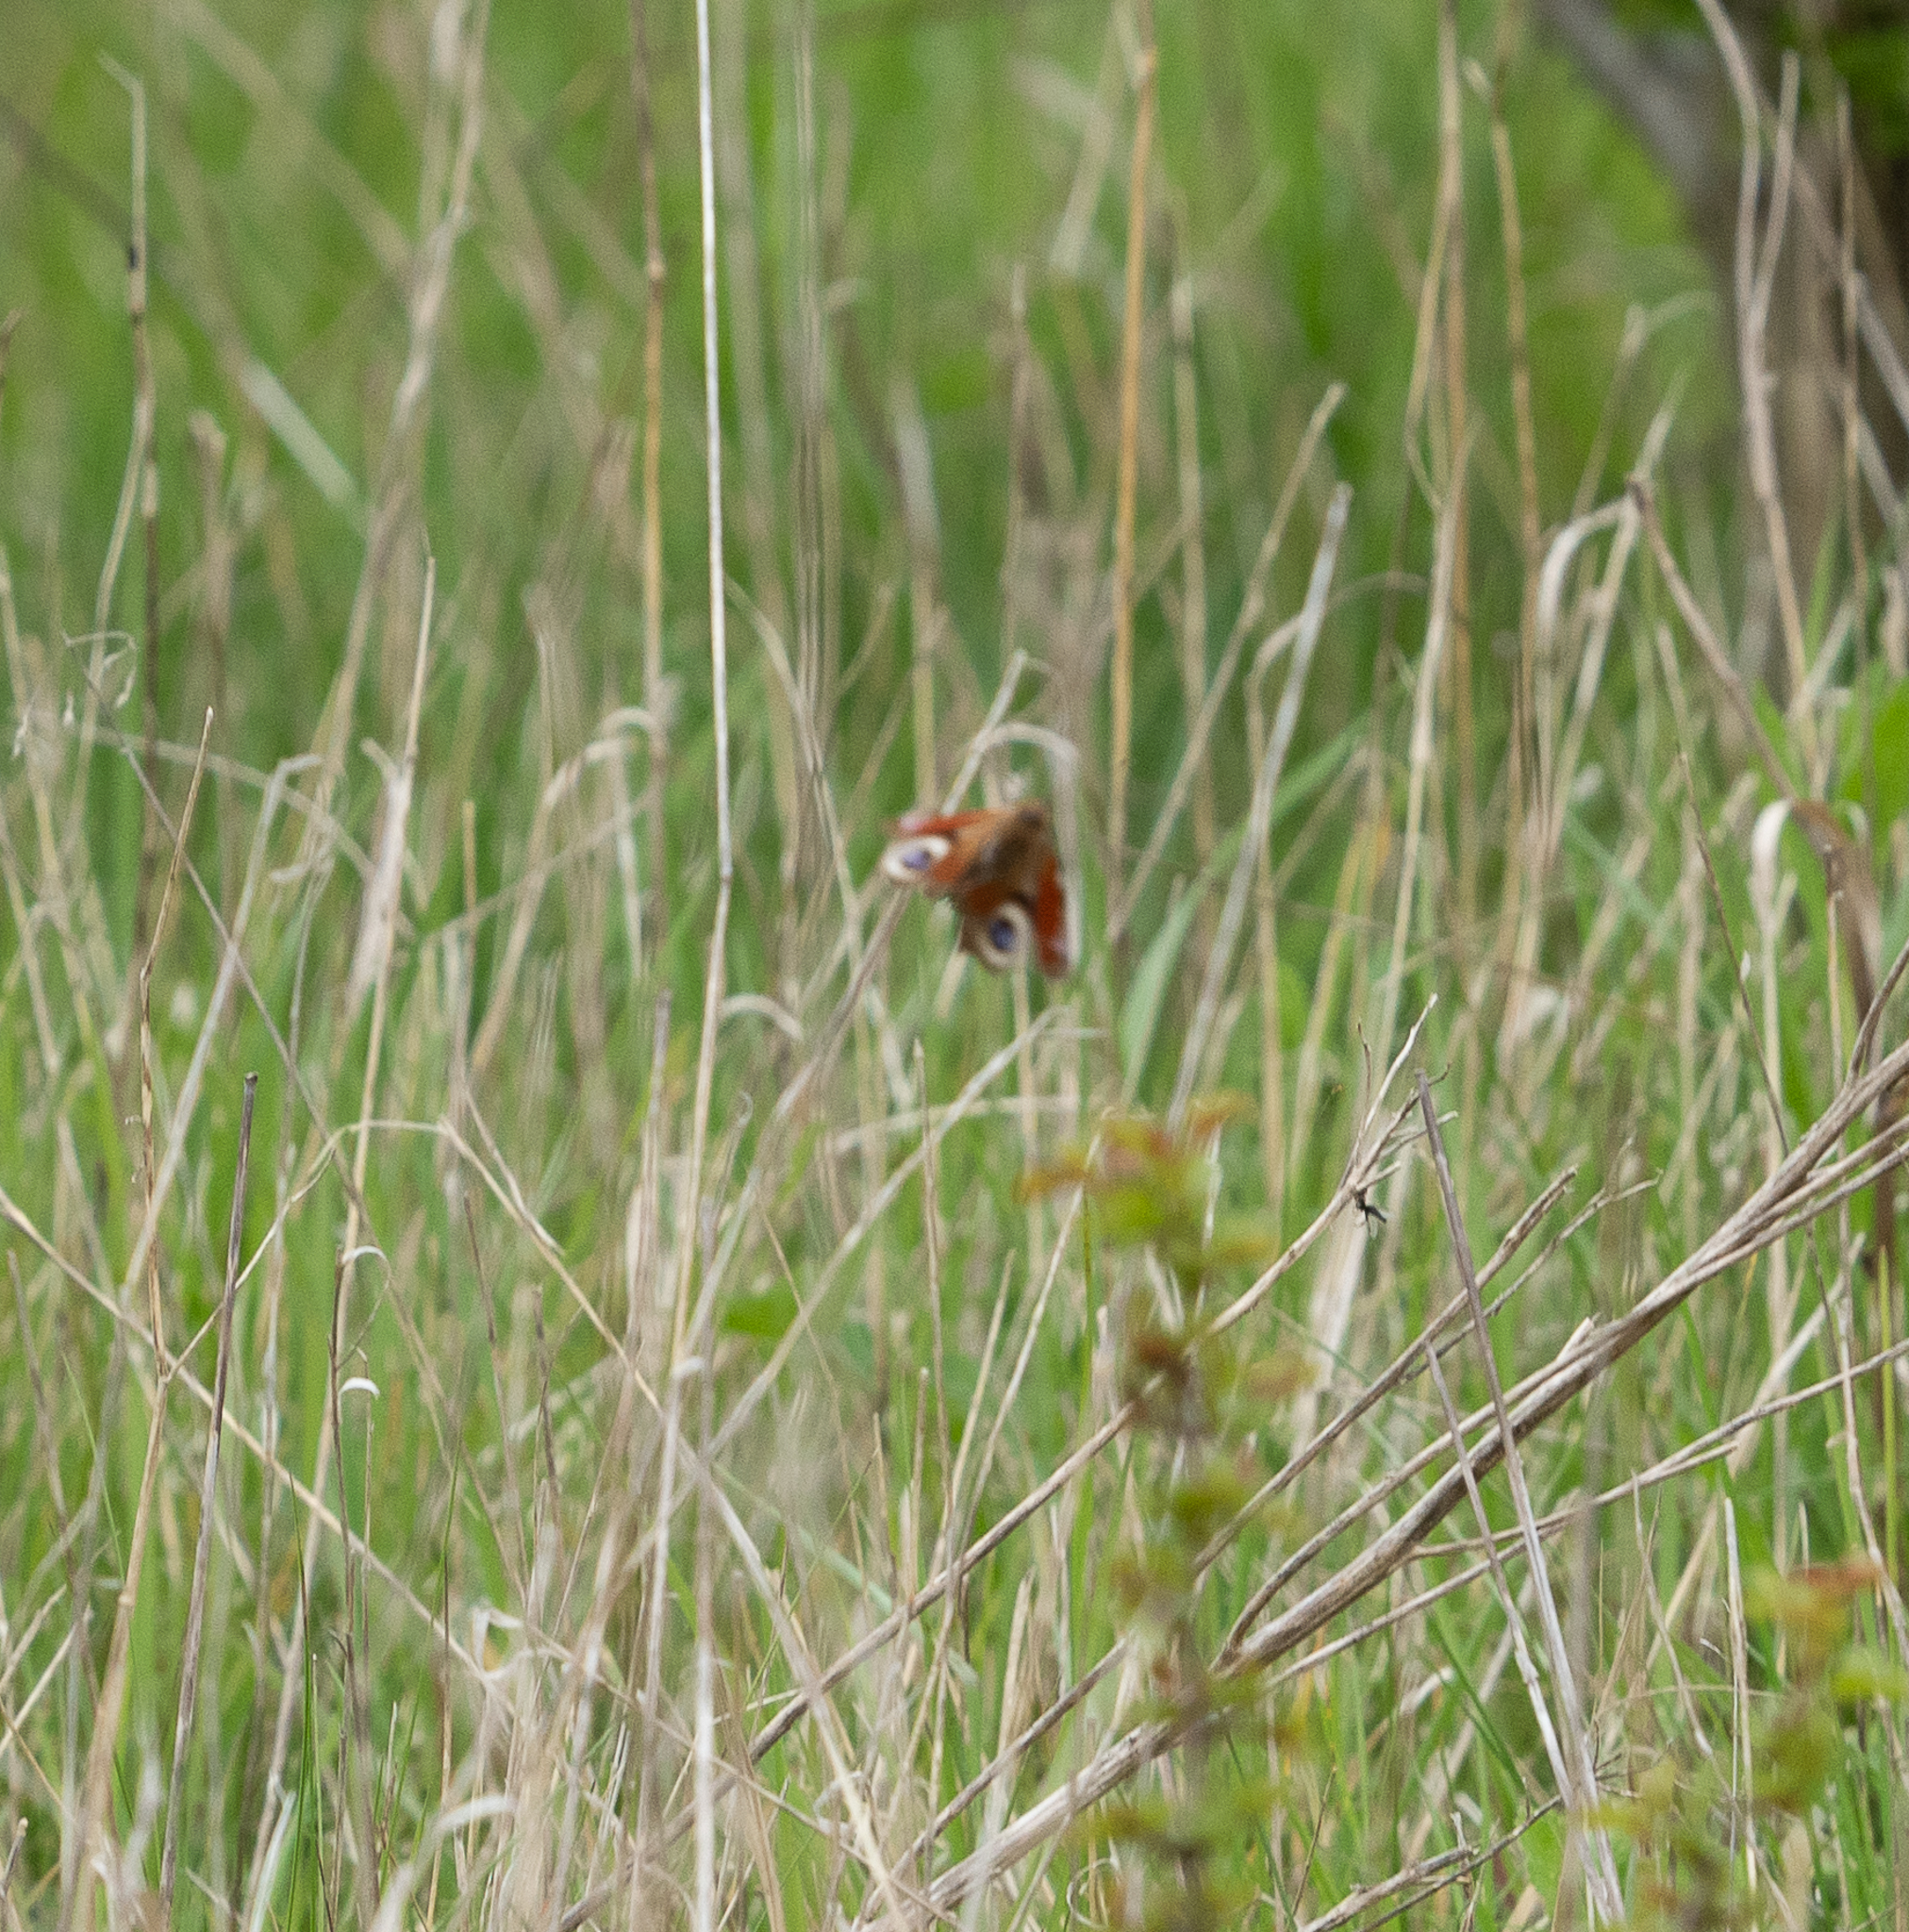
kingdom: Animalia
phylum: Arthropoda
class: Insecta
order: Lepidoptera
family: Nymphalidae
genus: Aglais
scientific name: Aglais io
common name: Peacock
